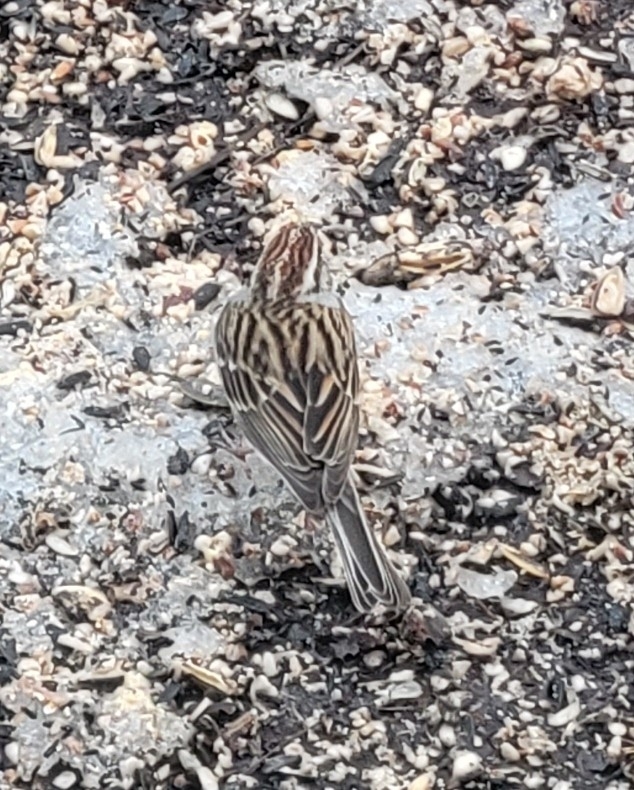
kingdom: Animalia
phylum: Chordata
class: Aves
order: Passeriformes
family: Passerellidae
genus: Spizella
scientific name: Spizella passerina
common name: Chipping sparrow
